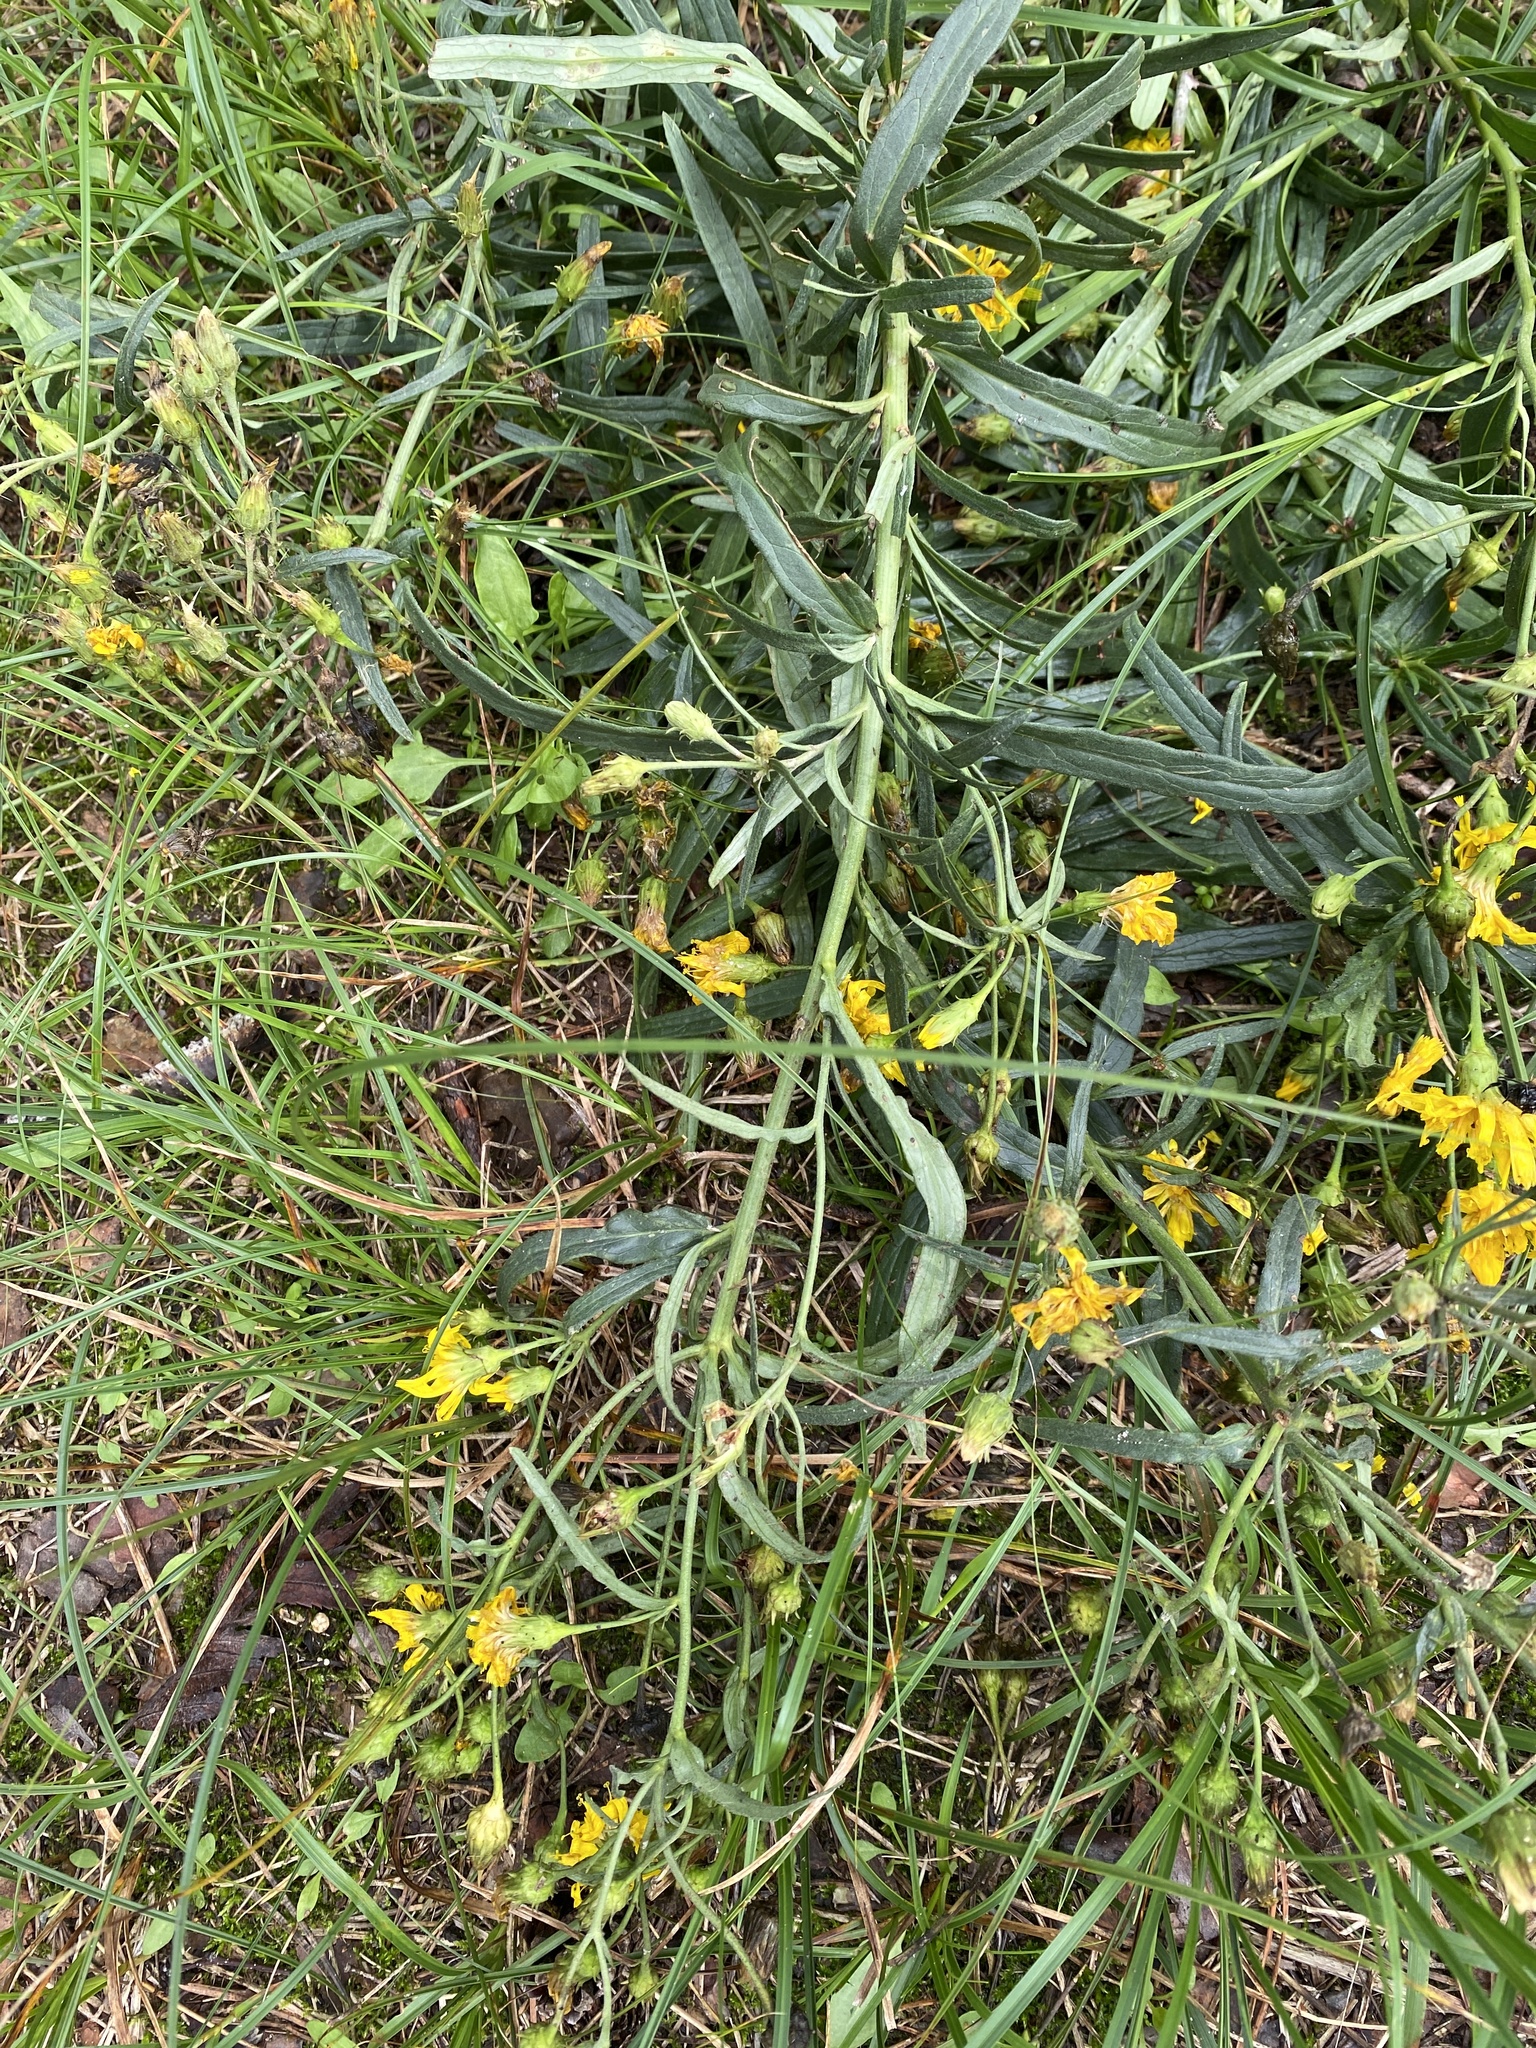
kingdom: Plantae
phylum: Tracheophyta
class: Magnoliopsida
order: Asterales
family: Asteraceae
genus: Hieracium
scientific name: Hieracium umbellatum
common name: Northern hawkweed
